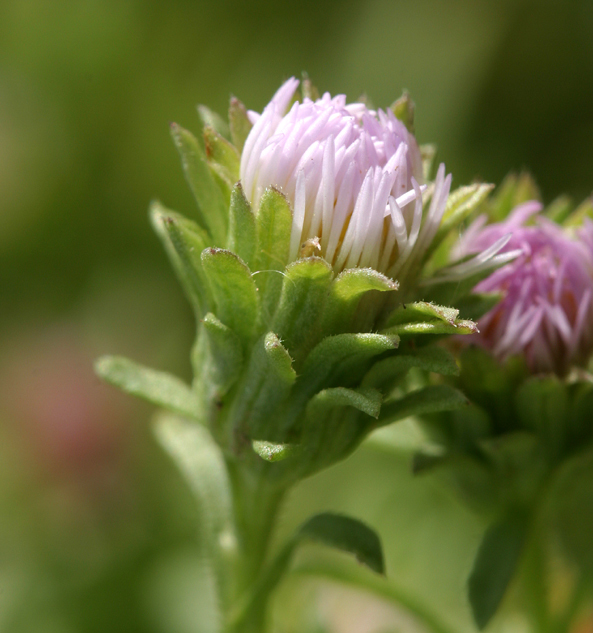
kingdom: Plantae
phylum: Tracheophyta
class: Magnoliopsida
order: Asterales
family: Asteraceae
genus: Symphyotrichum
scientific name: Symphyotrichum frondosum
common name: Leafy aster
